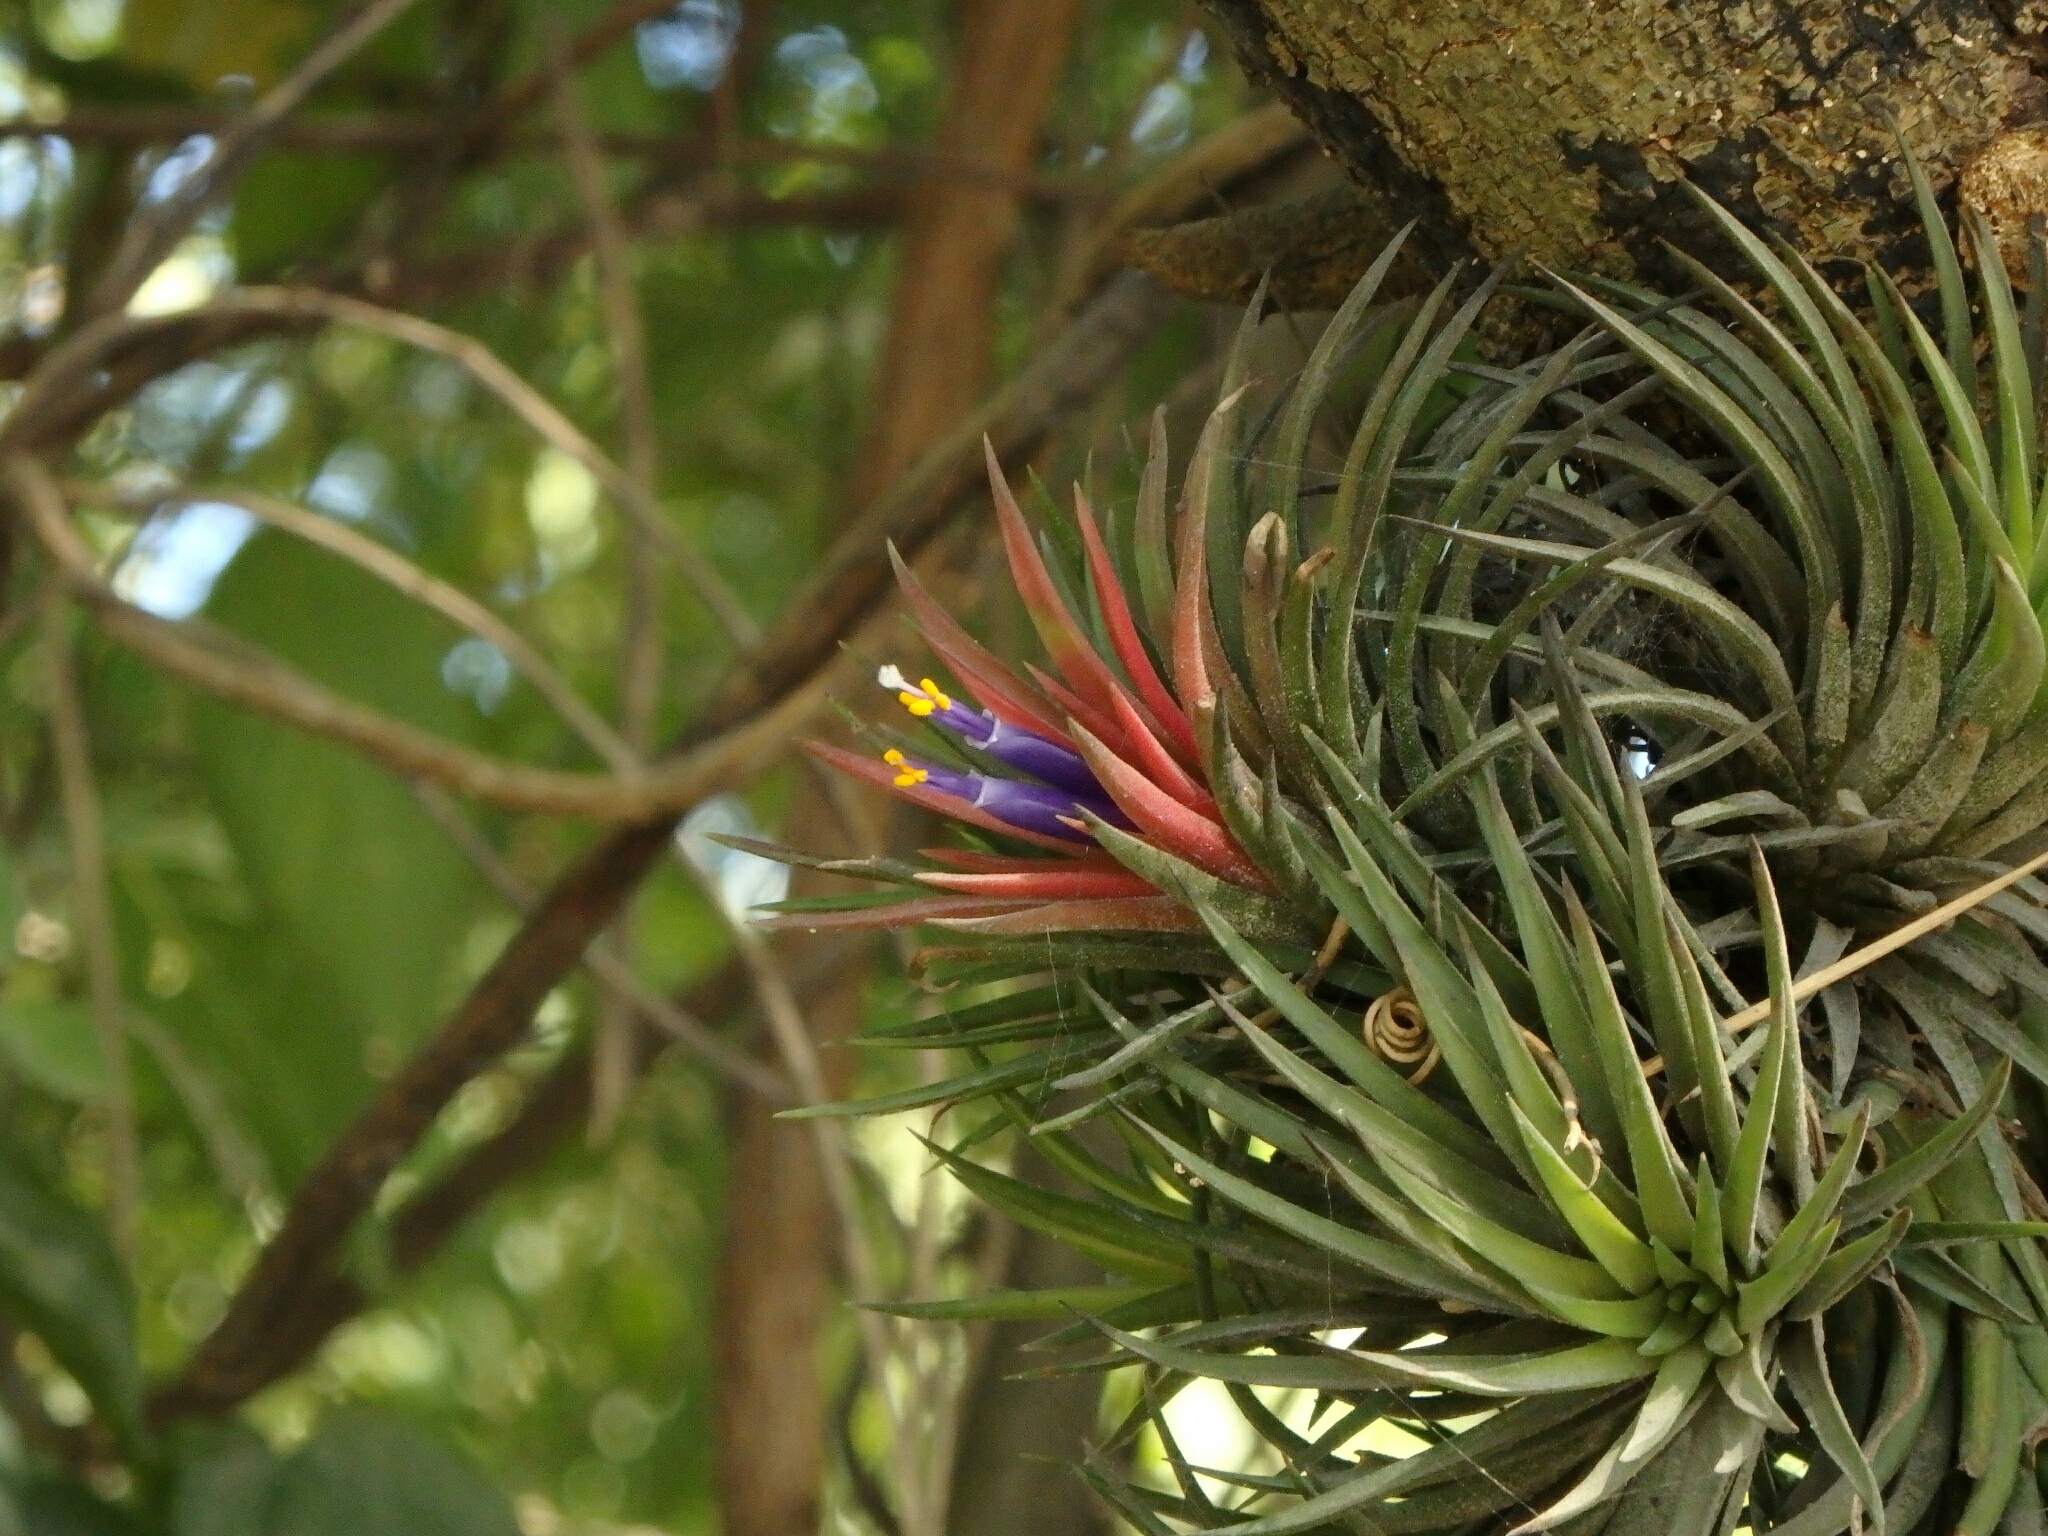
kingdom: Plantae
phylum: Tracheophyta
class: Liliopsida
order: Poales
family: Bromeliaceae
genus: Tillandsia
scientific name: Tillandsia ionantha
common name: Sky plant
